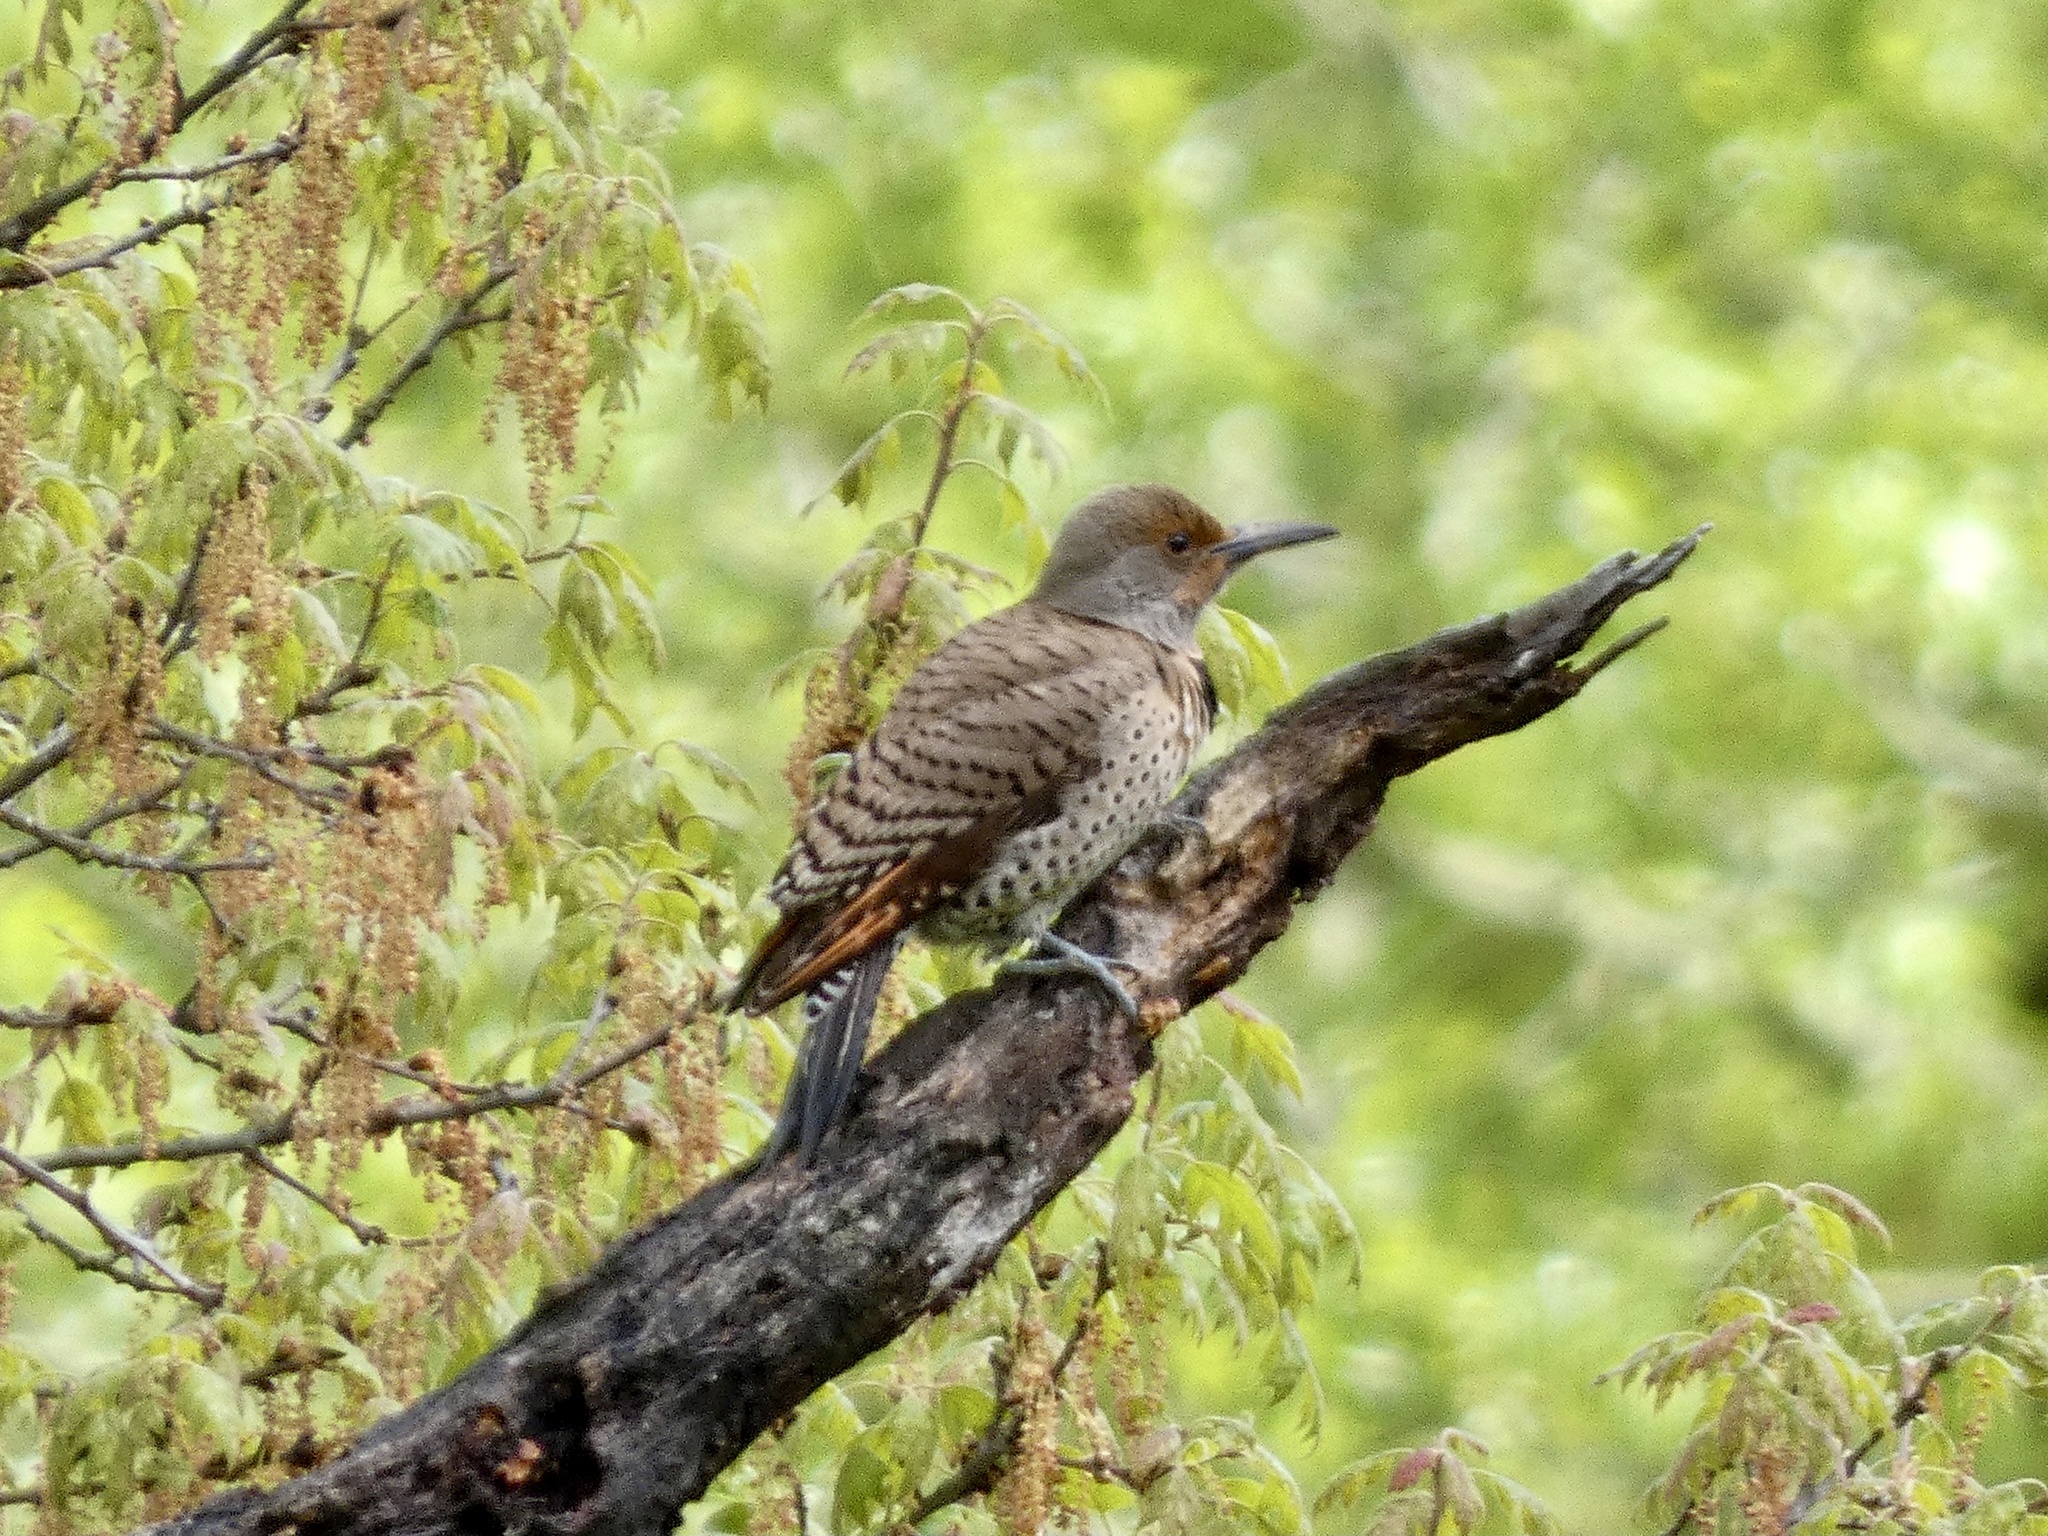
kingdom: Animalia
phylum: Chordata
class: Aves
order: Piciformes
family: Picidae
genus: Colaptes
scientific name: Colaptes auratus
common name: Northern flicker
